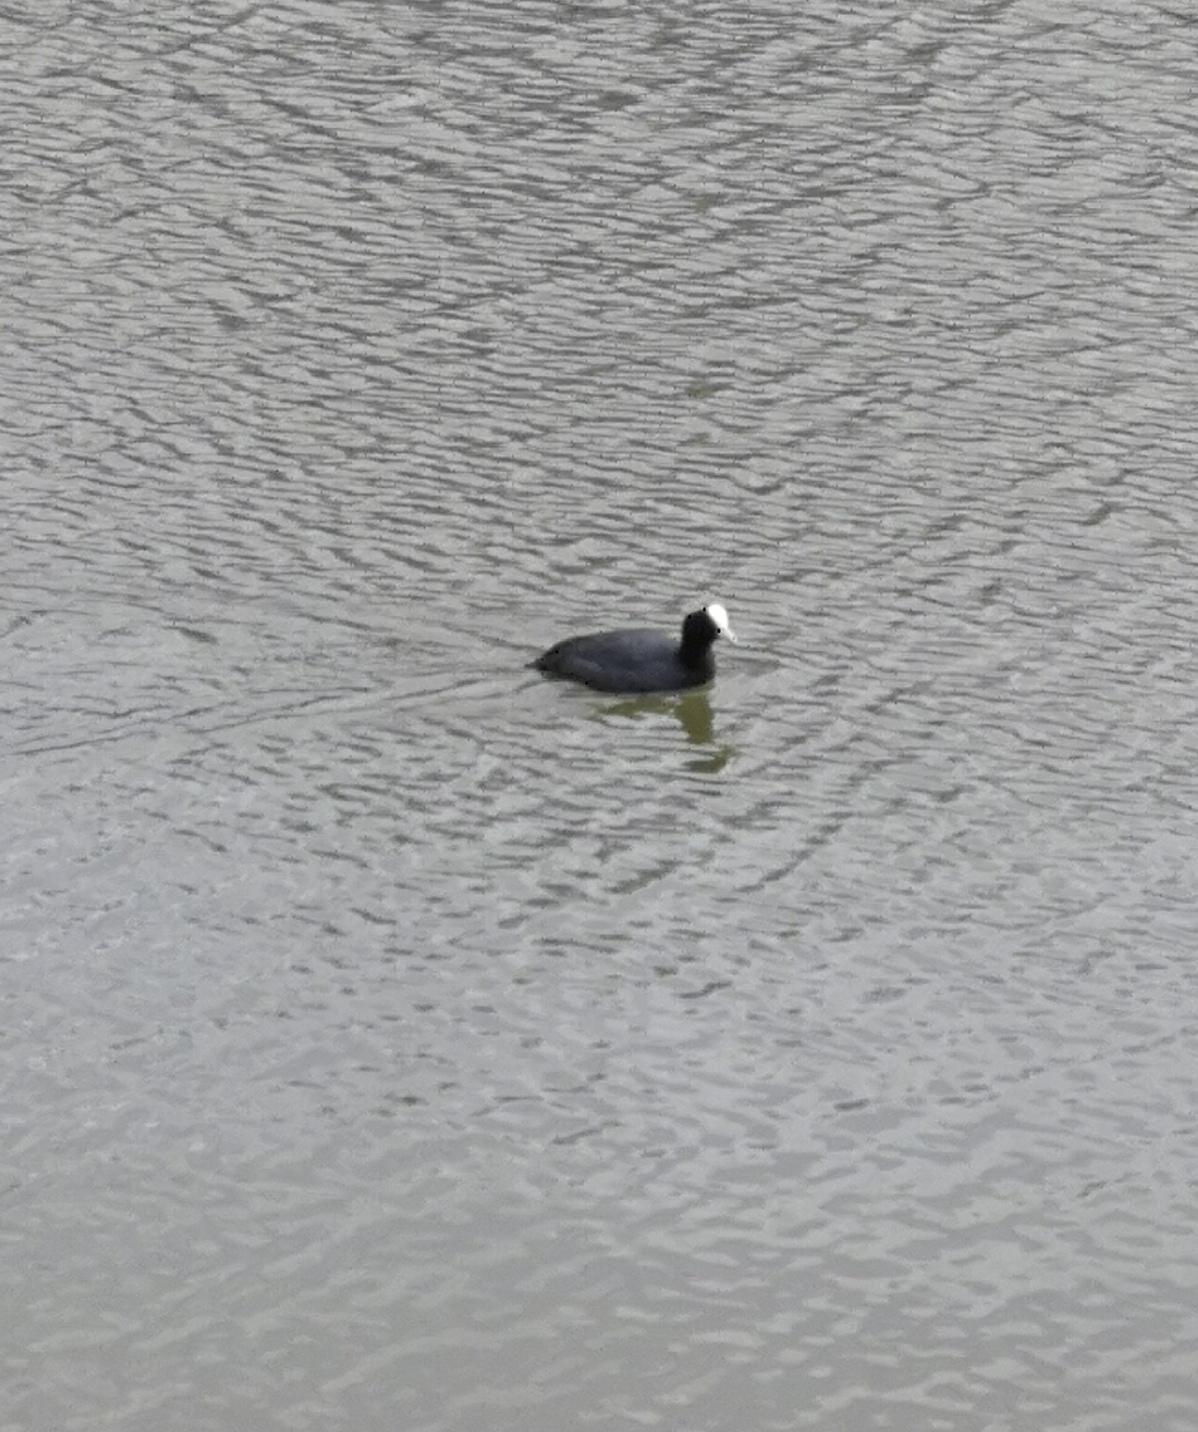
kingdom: Animalia
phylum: Chordata
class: Aves
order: Gruiformes
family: Rallidae
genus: Fulica
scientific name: Fulica atra
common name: Eurasian coot
